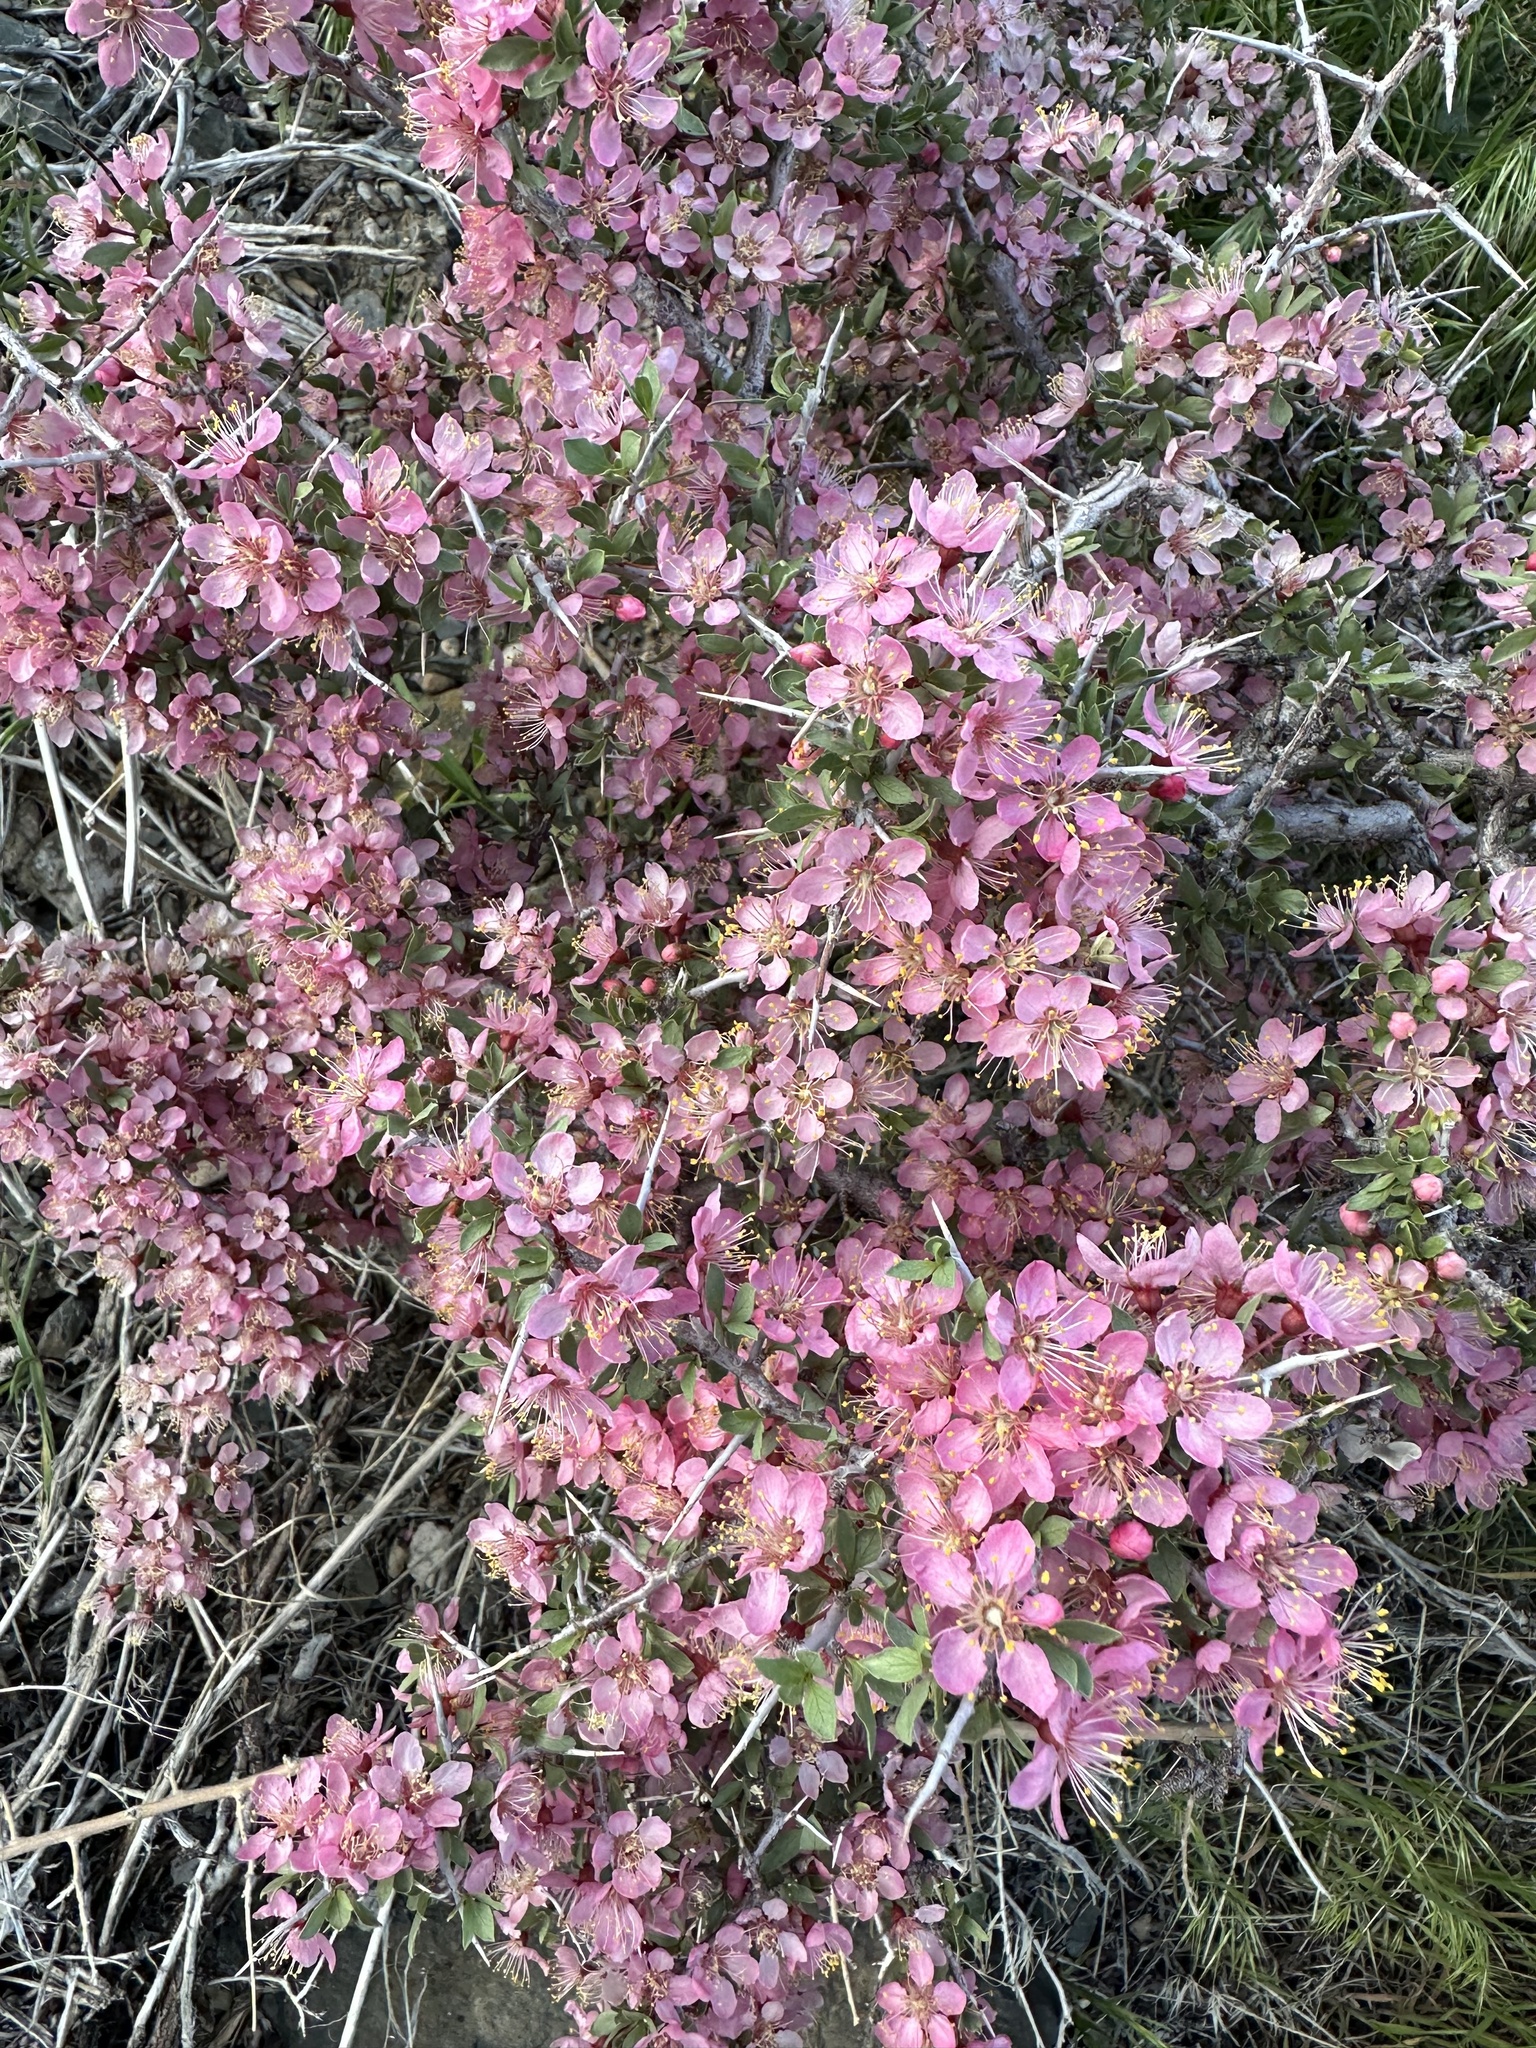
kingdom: Plantae
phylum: Tracheophyta
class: Magnoliopsida
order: Rosales
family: Rosaceae
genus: Prunus
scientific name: Prunus andersonii
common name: Desert peach
